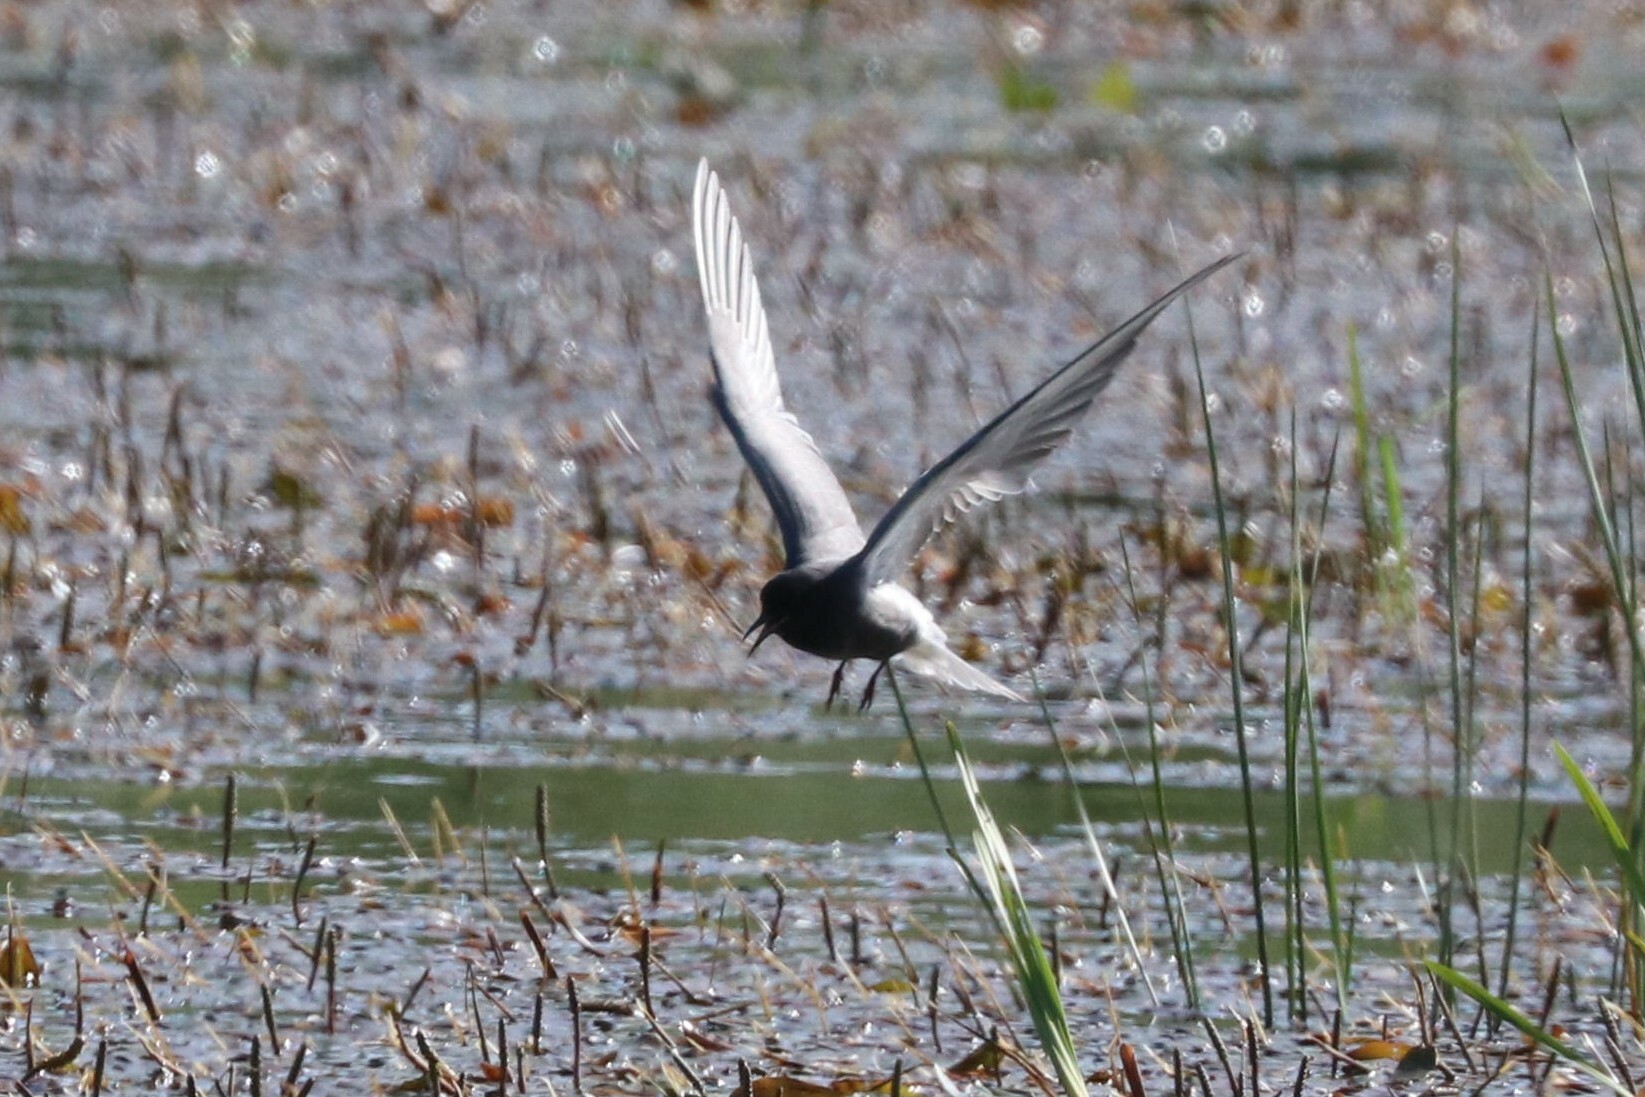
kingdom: Animalia
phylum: Chordata
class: Aves
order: Charadriiformes
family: Laridae
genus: Chlidonias
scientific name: Chlidonias niger
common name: Black tern
